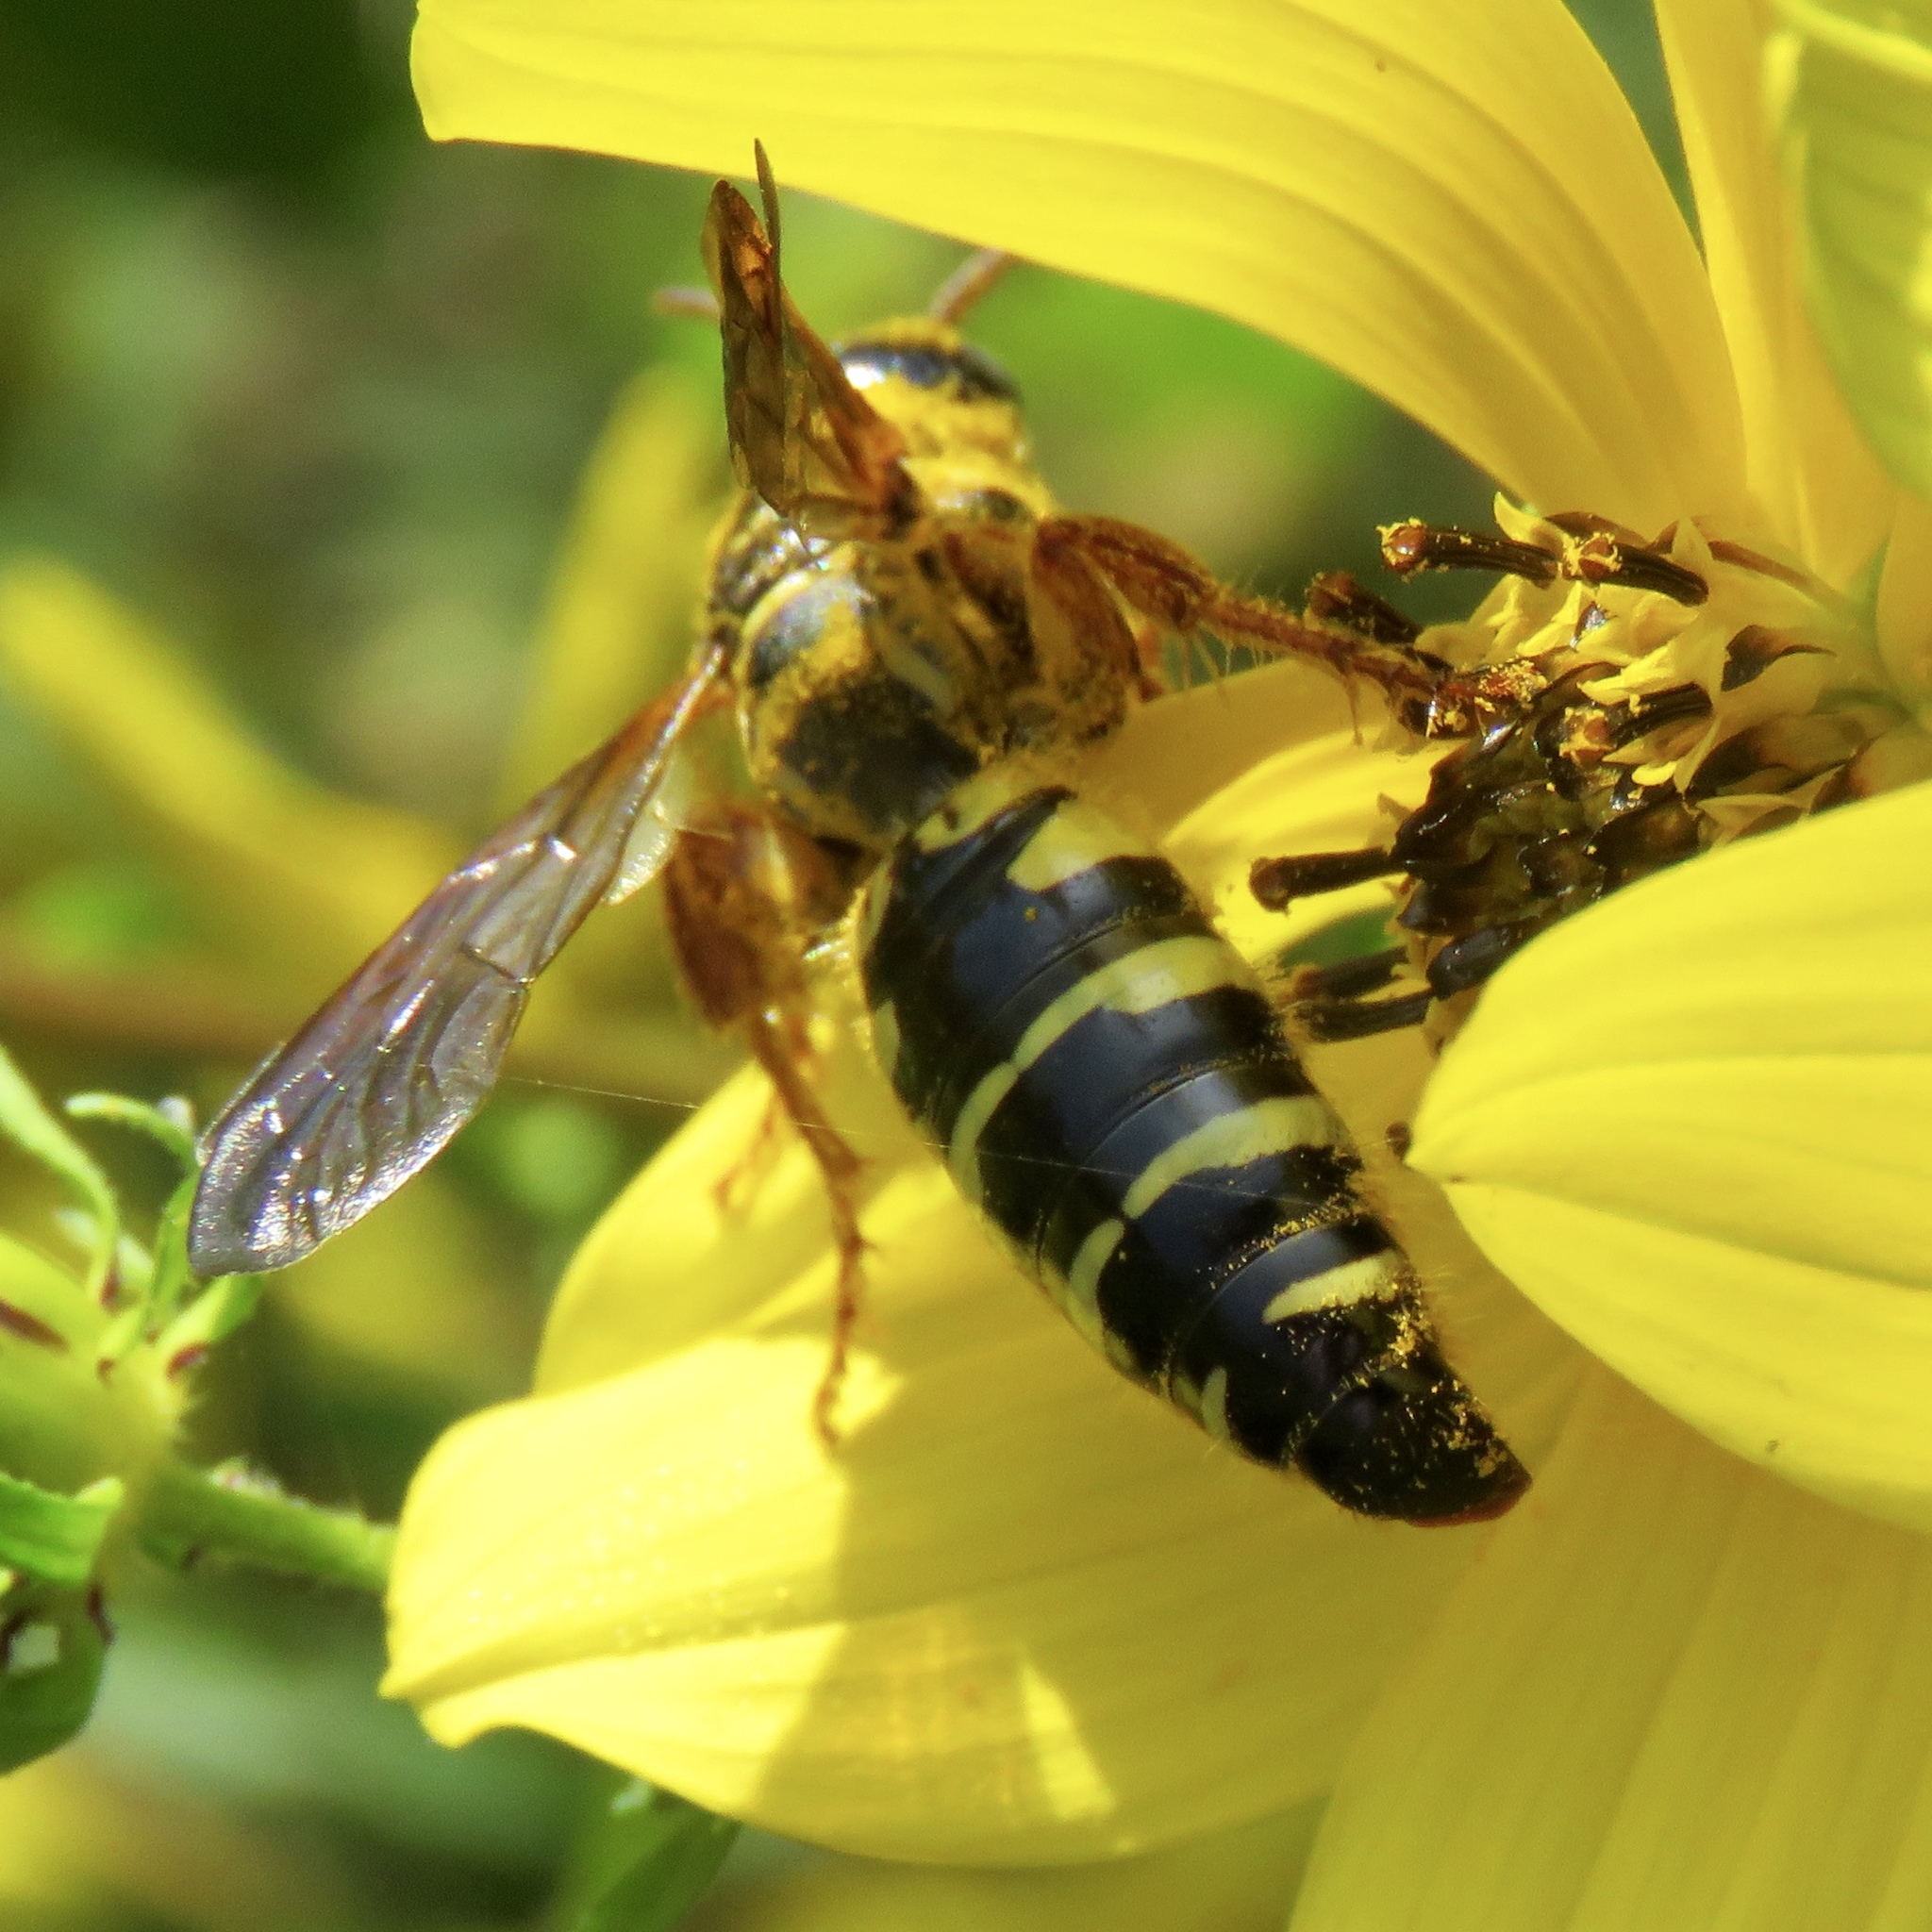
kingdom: Animalia
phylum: Arthropoda
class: Insecta
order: Hymenoptera
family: Tiphiidae
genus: Myzinum
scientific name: Myzinum quinquecinctum
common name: Five-banded thynnid wasp
